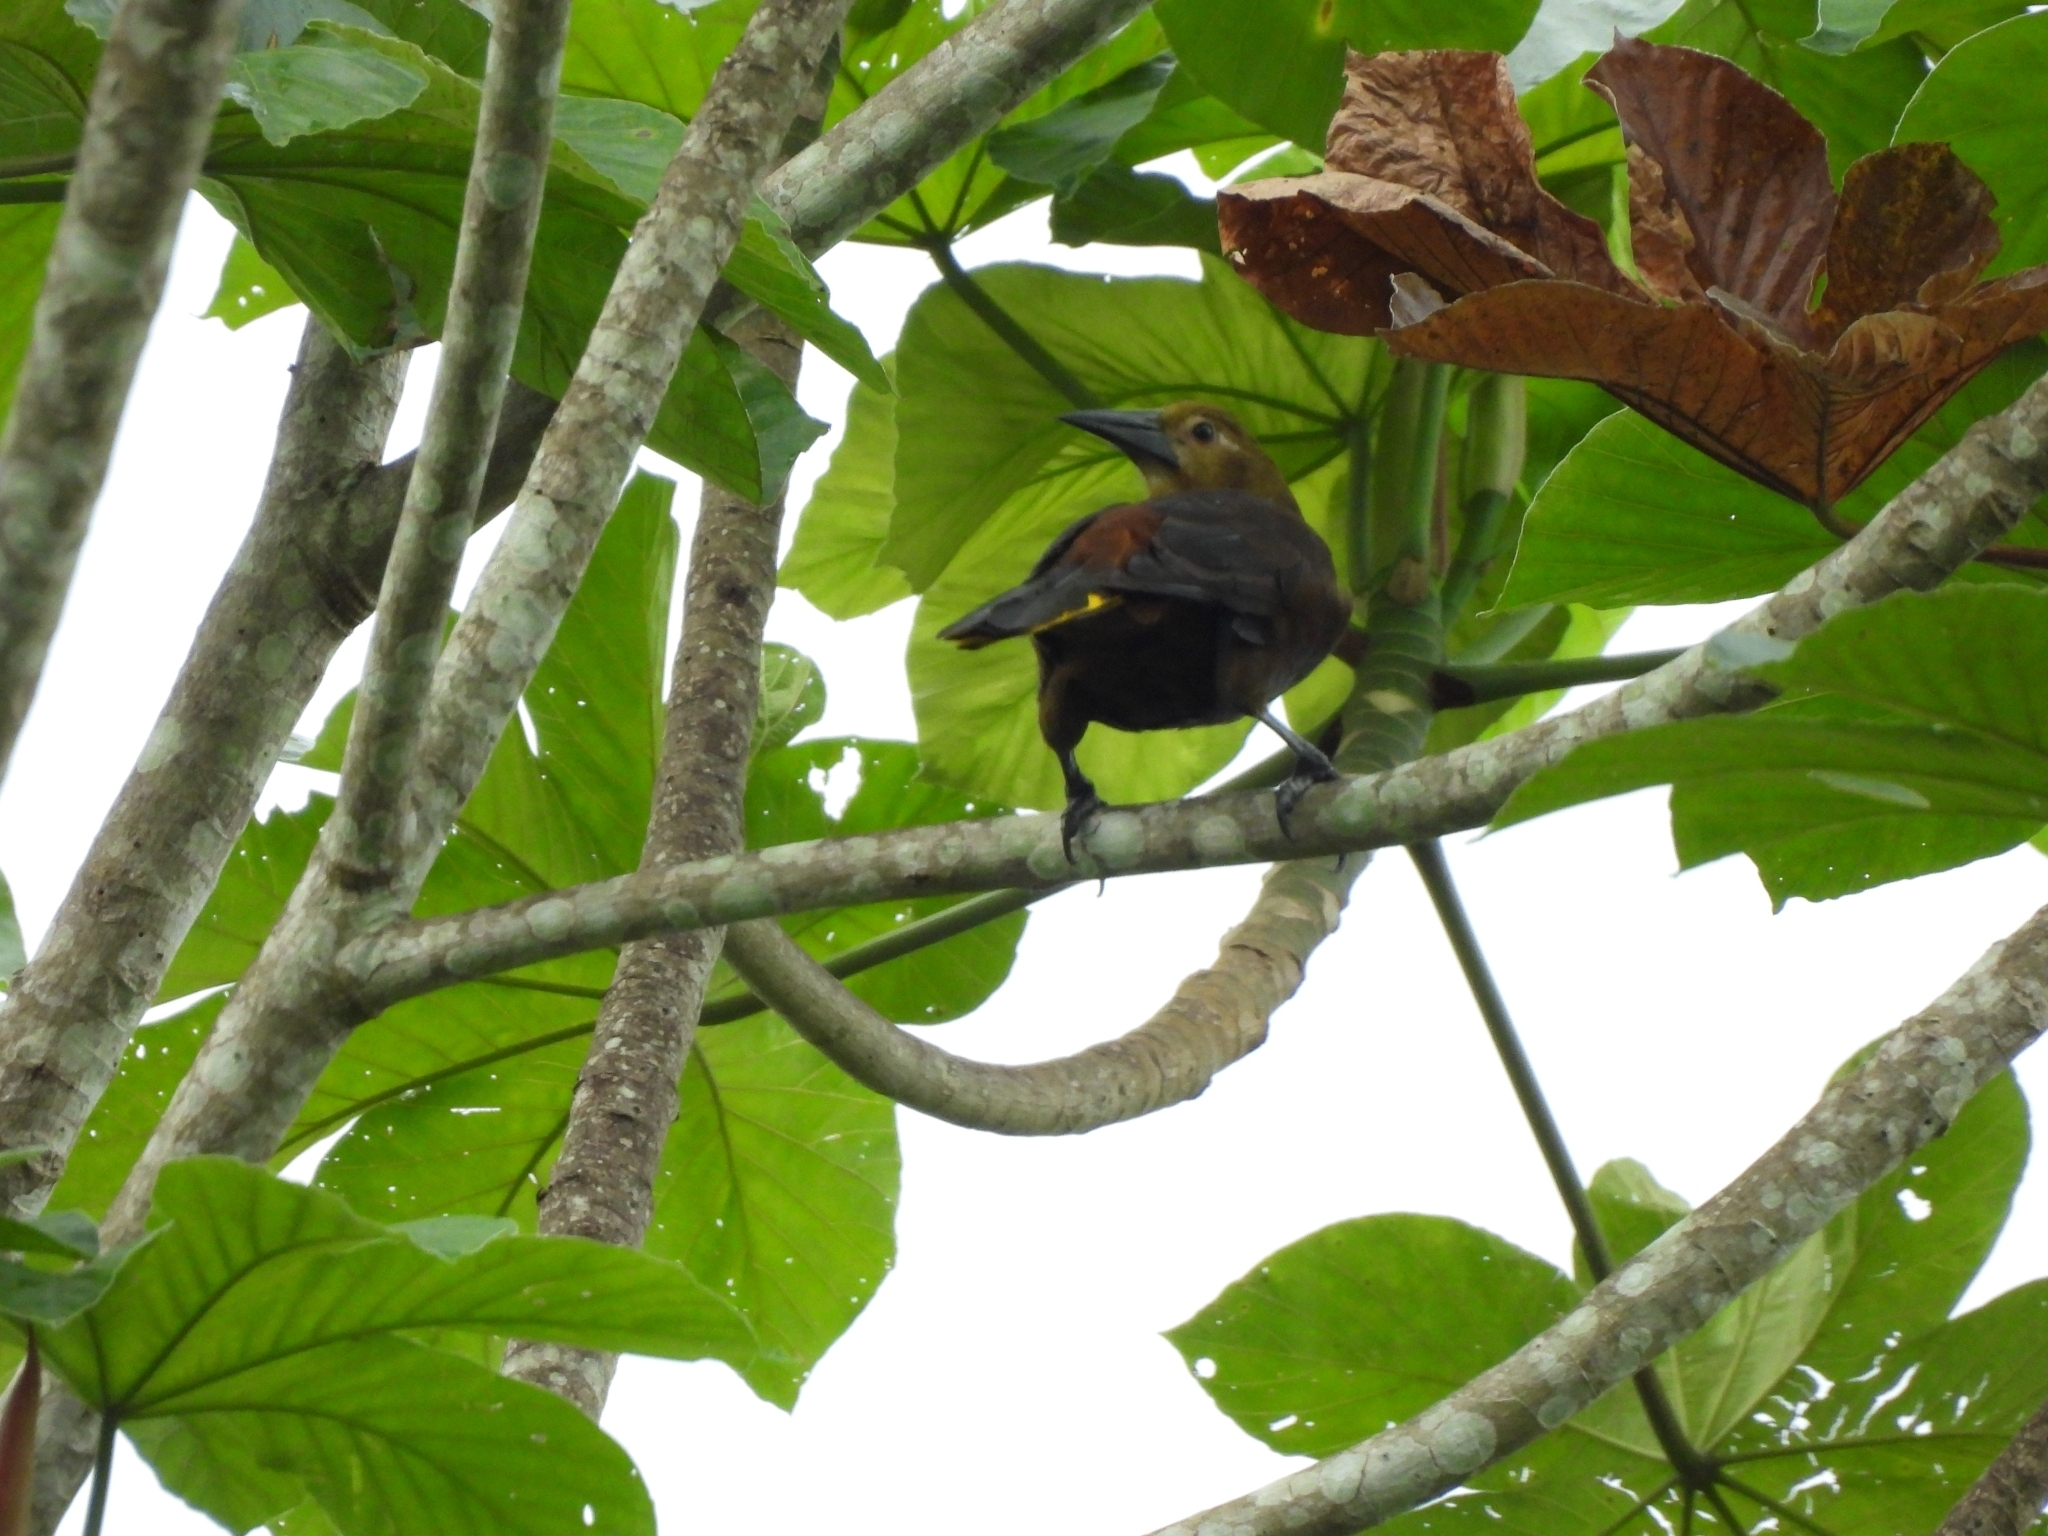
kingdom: Animalia
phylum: Chordata
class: Aves
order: Passeriformes
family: Icteridae
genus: Psarocolius
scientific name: Psarocolius angustifrons
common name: Russet-backed oropendola
